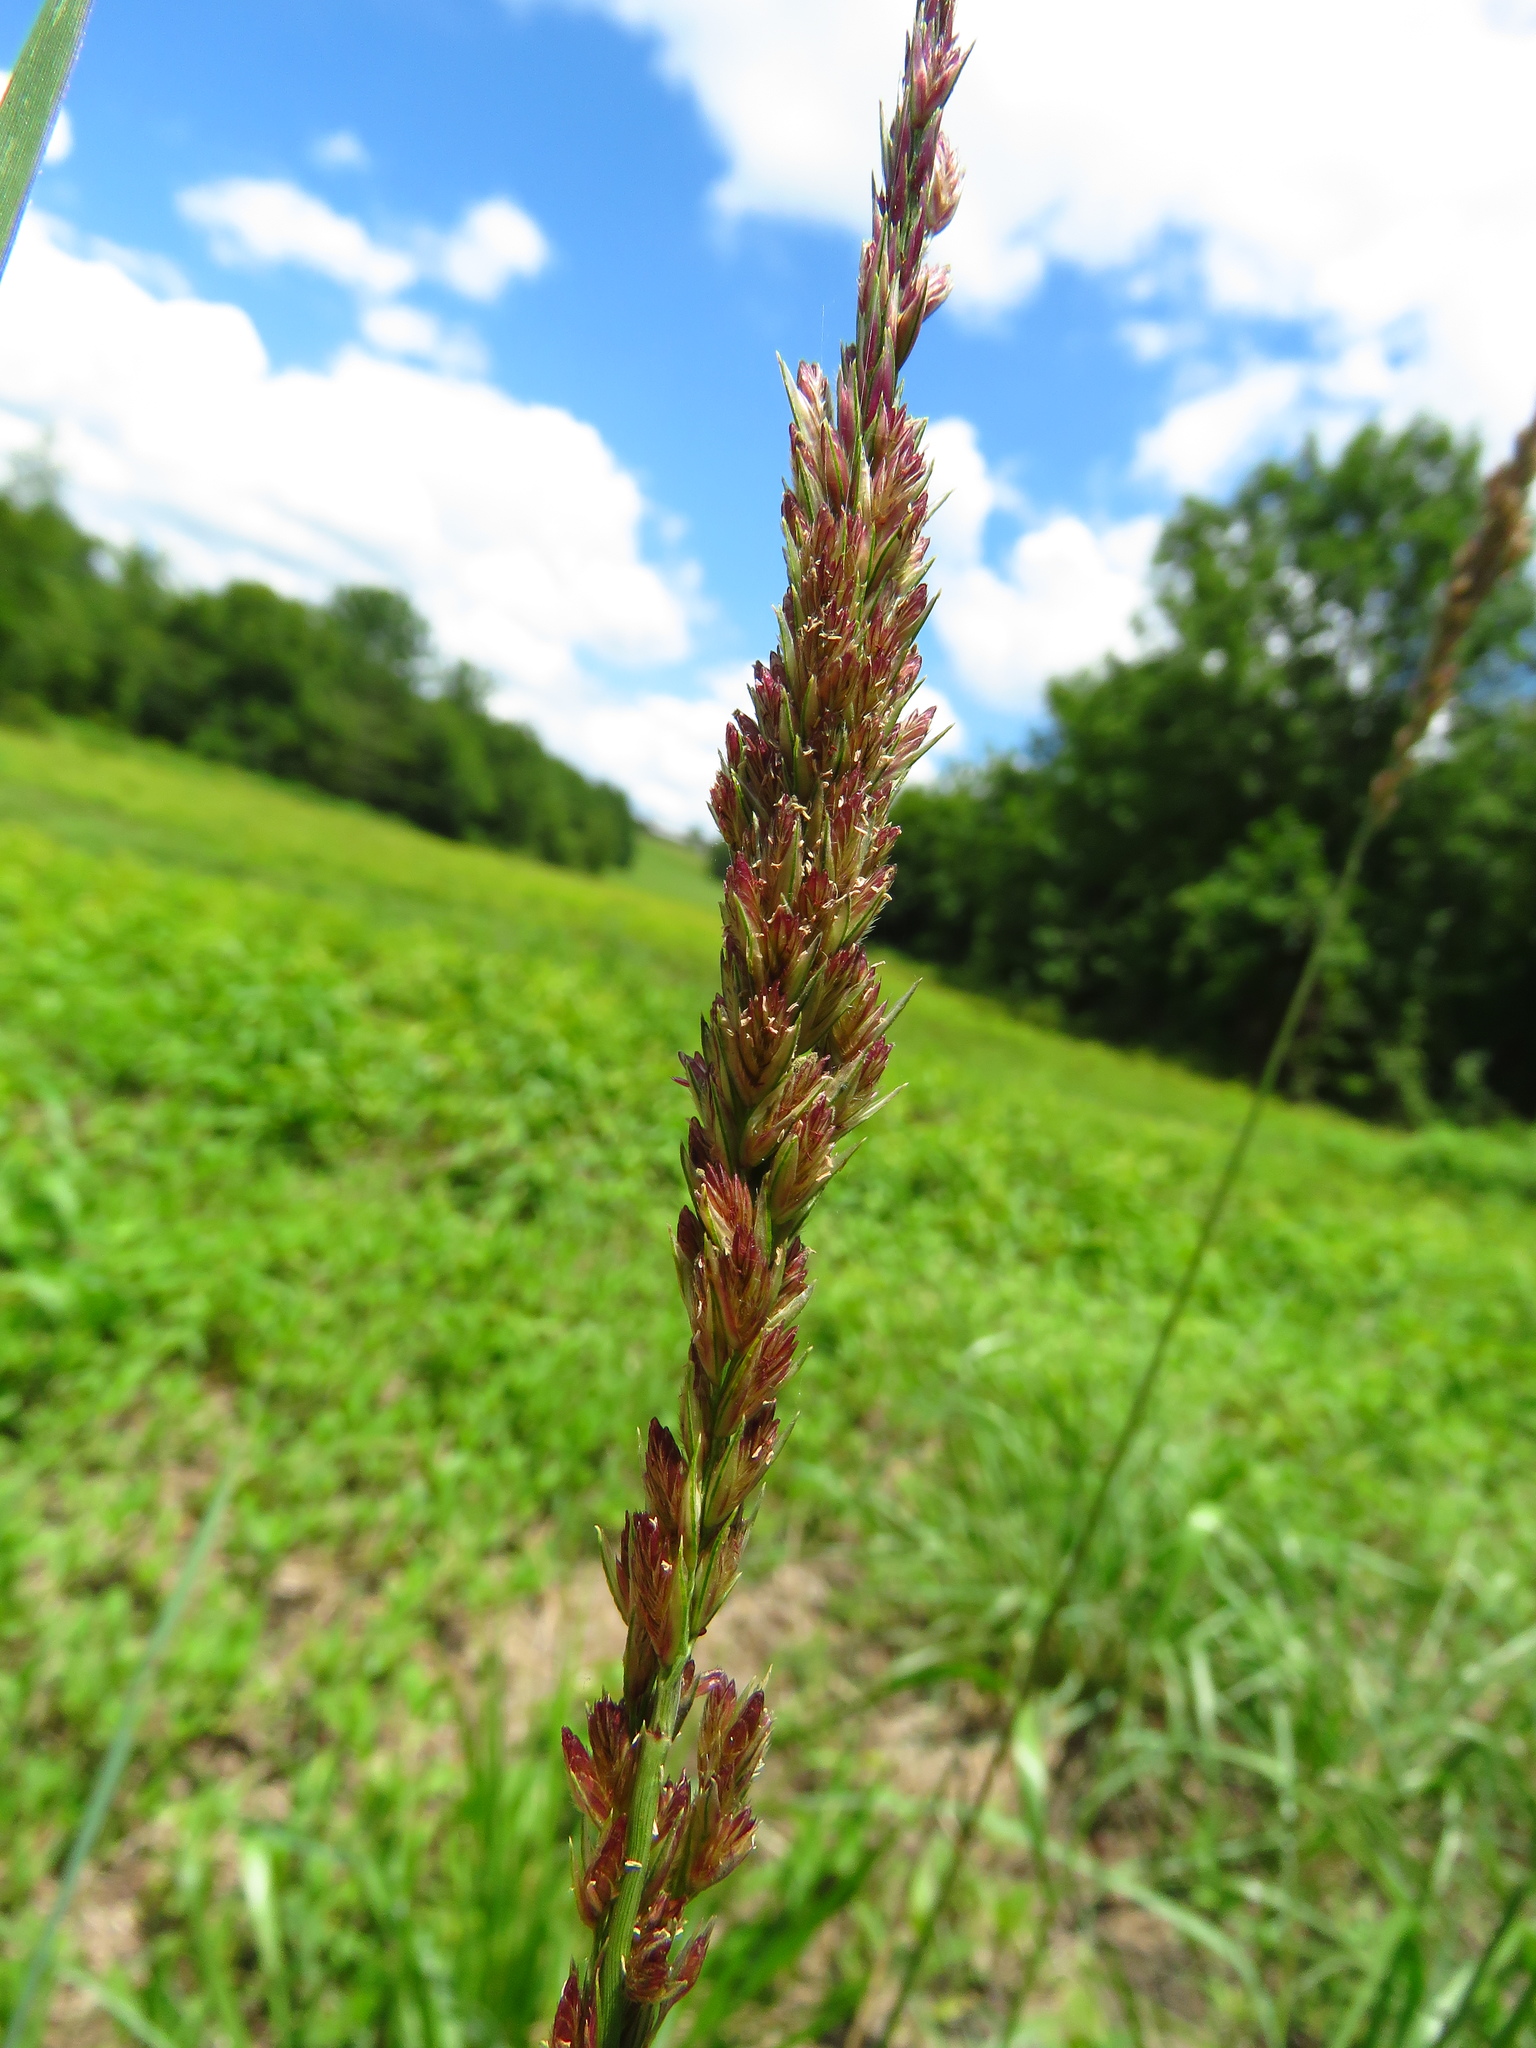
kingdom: Plantae
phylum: Tracheophyta
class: Liliopsida
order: Poales
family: Poaceae
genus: Tridens
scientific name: Tridens strictus
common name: Long-spike tridens
